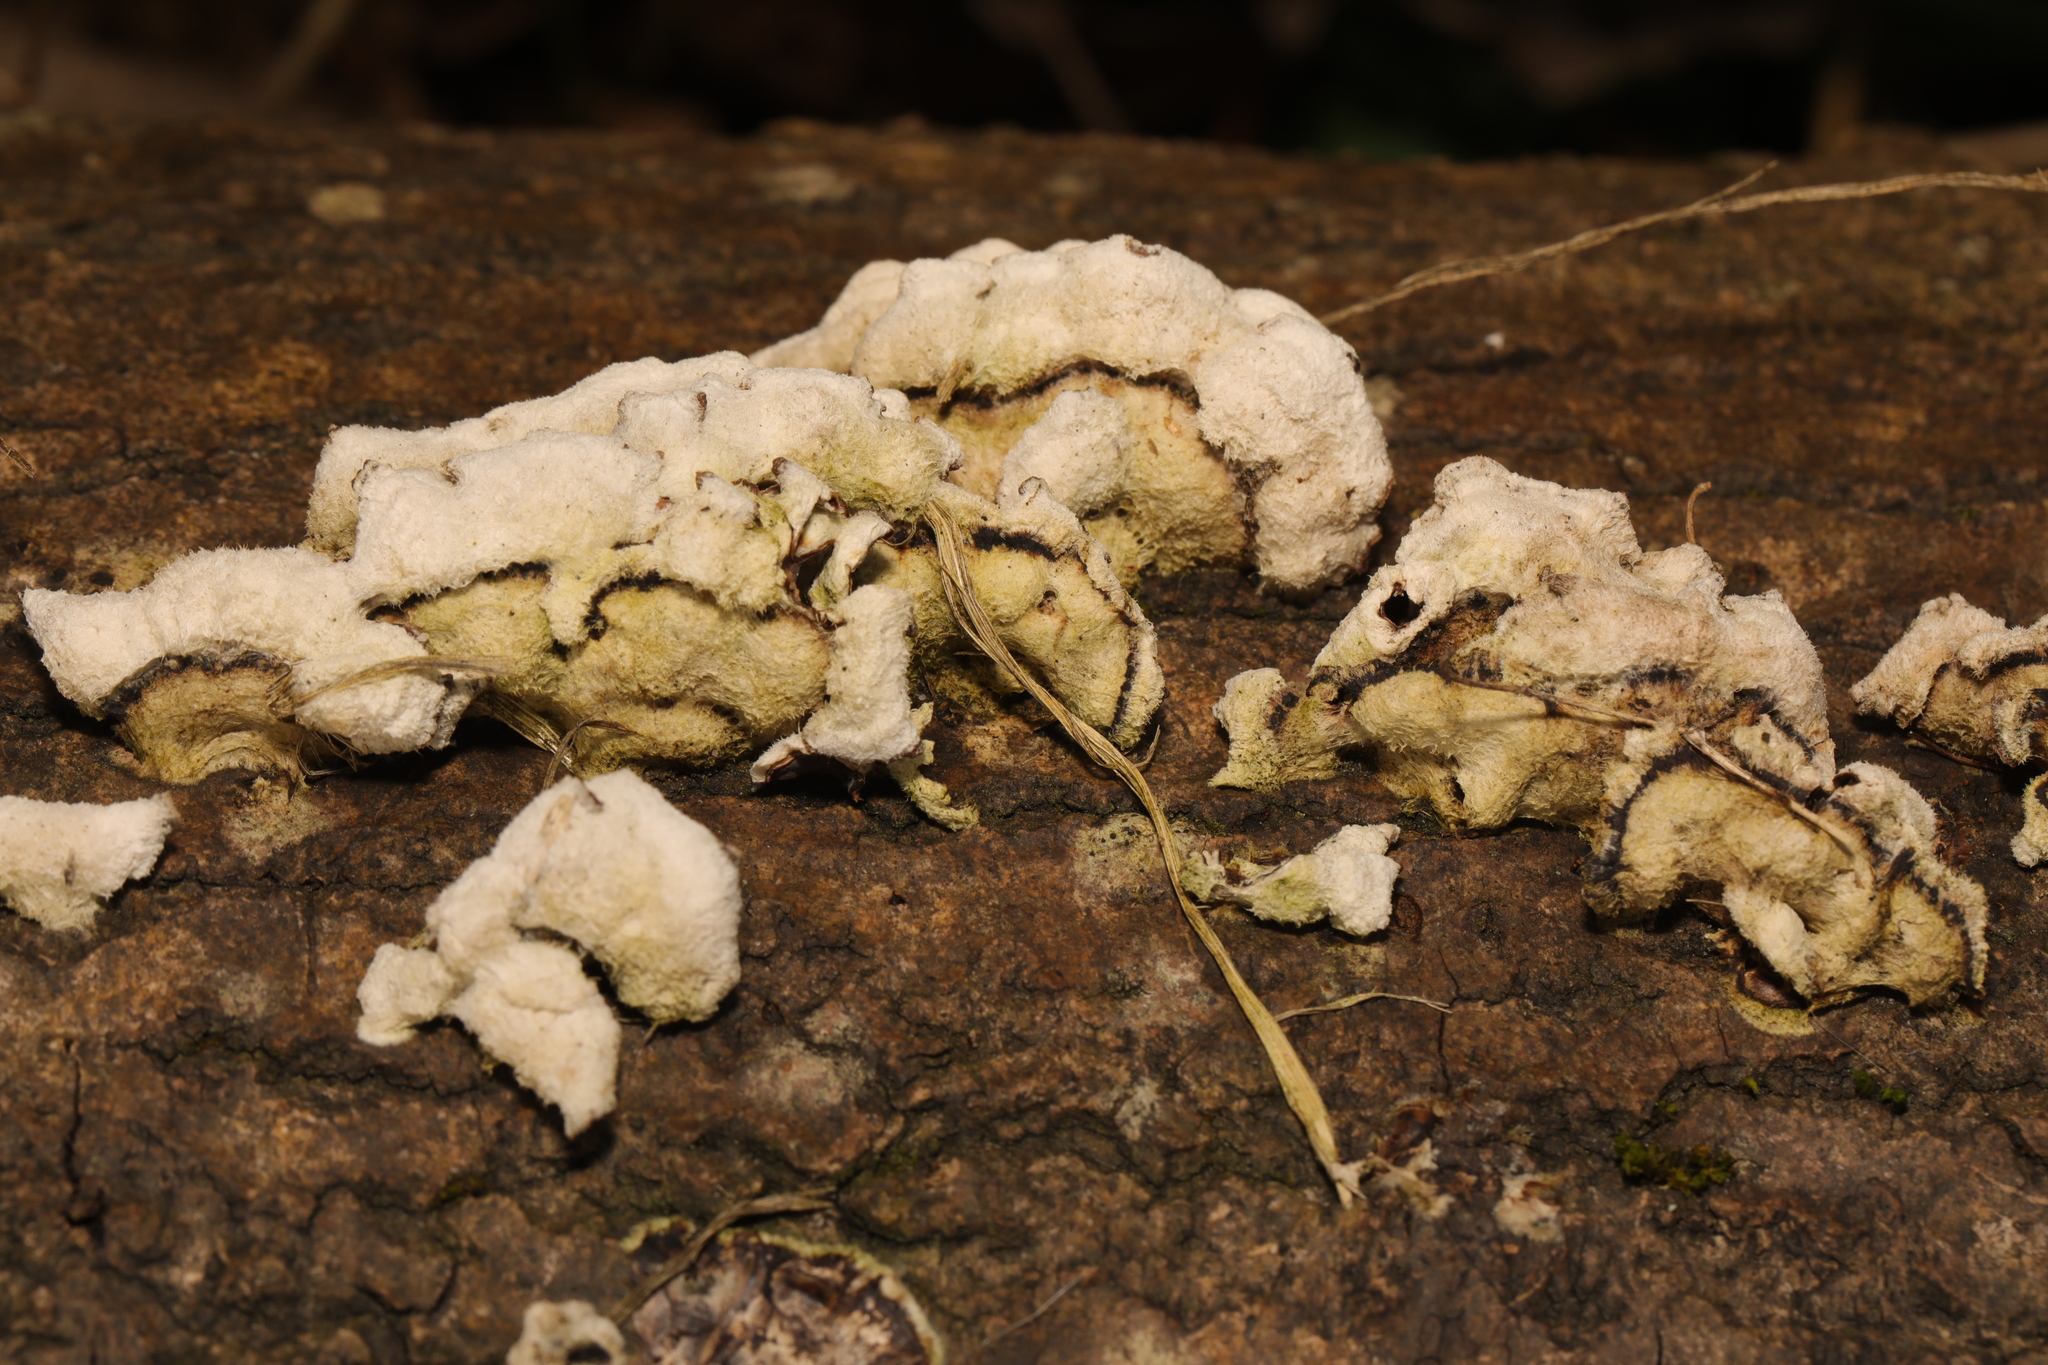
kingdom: Fungi
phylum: Basidiomycota
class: Agaricomycetes
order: Agaricales
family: Schizophyllaceae
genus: Schizophyllum
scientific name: Schizophyllum commune
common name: Common porecrust
